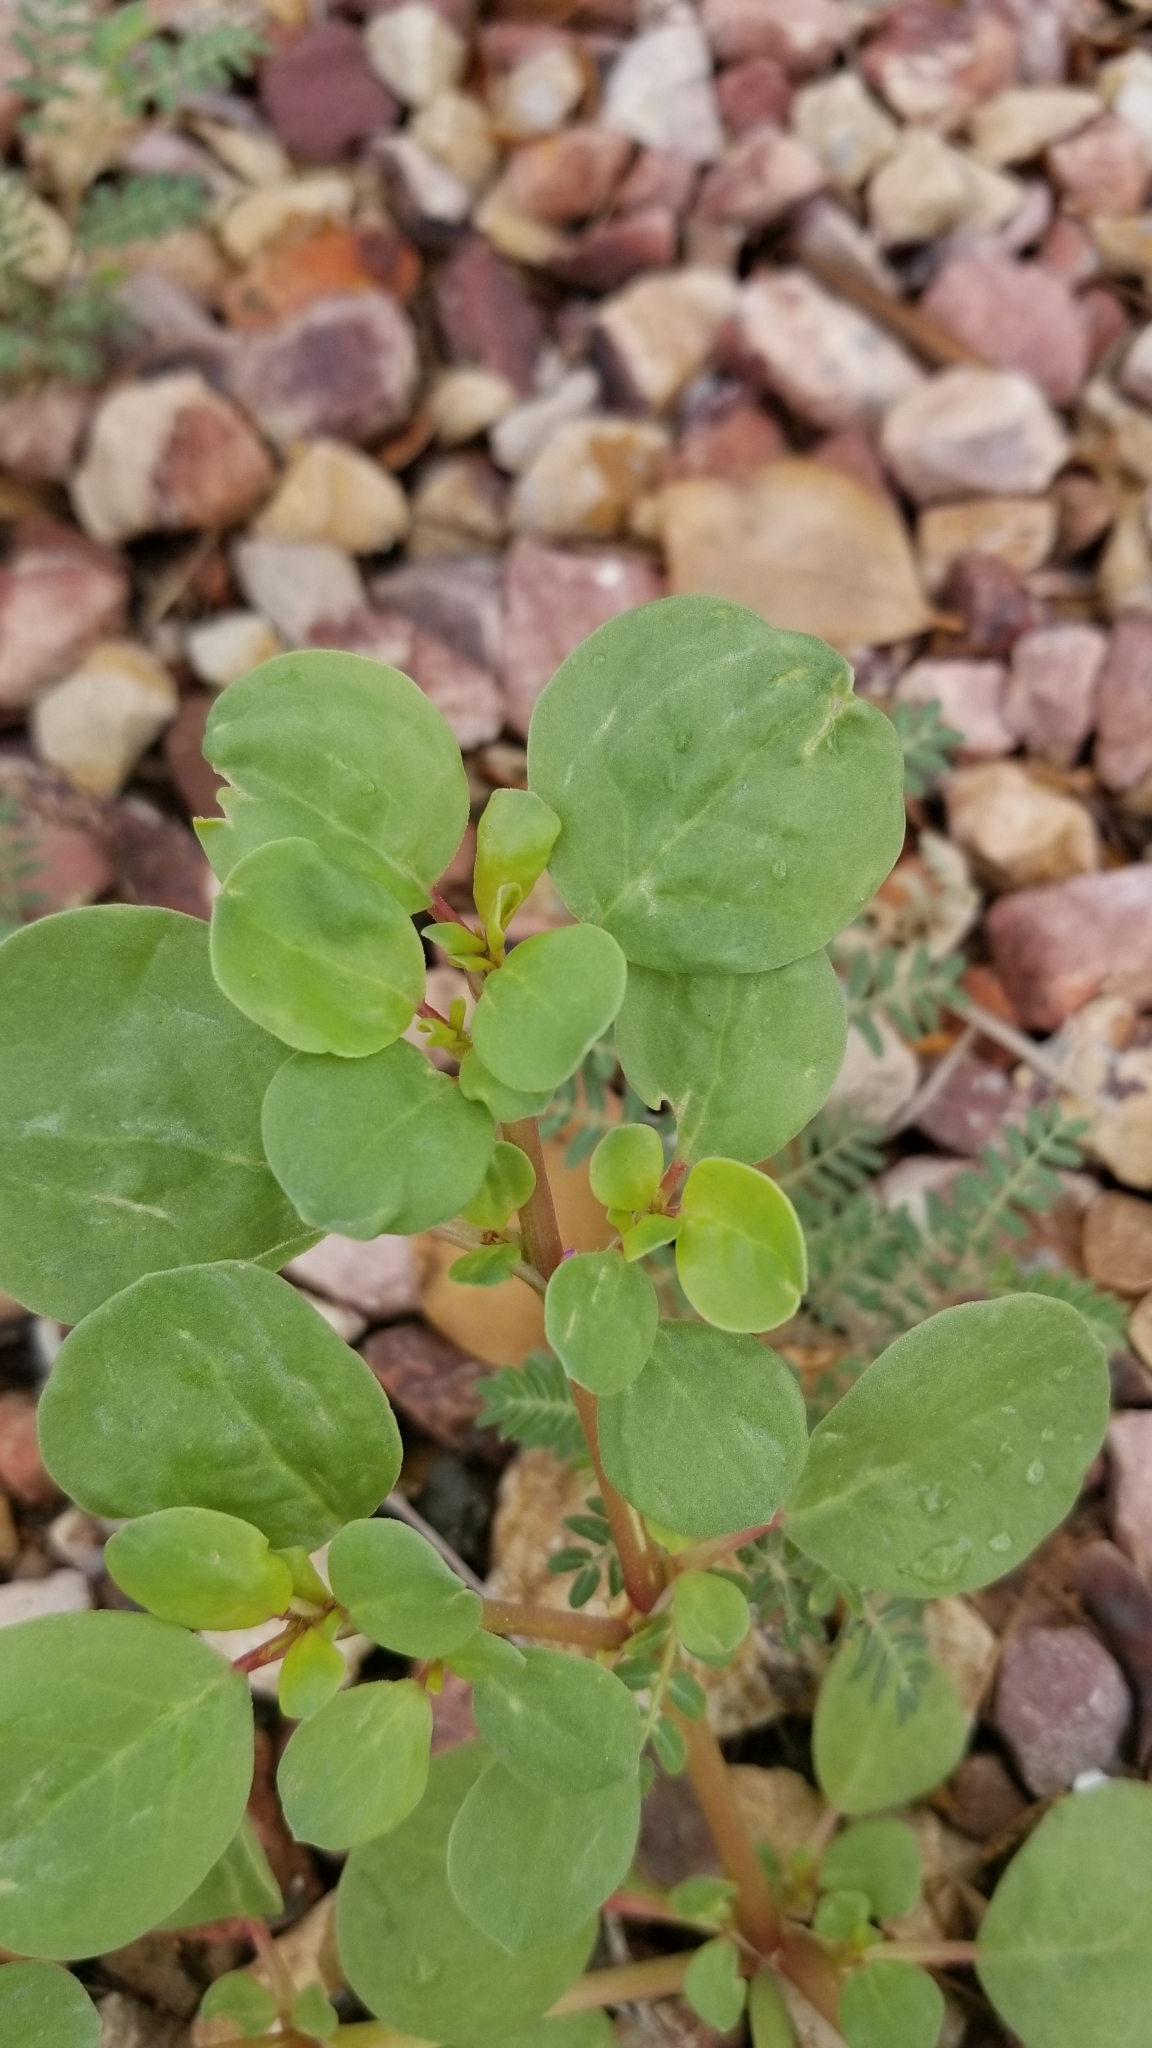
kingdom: Plantae
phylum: Tracheophyta
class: Magnoliopsida
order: Caryophyllales
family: Aizoaceae
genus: Trianthema
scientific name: Trianthema portulacastrum
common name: Desert horsepurslane
